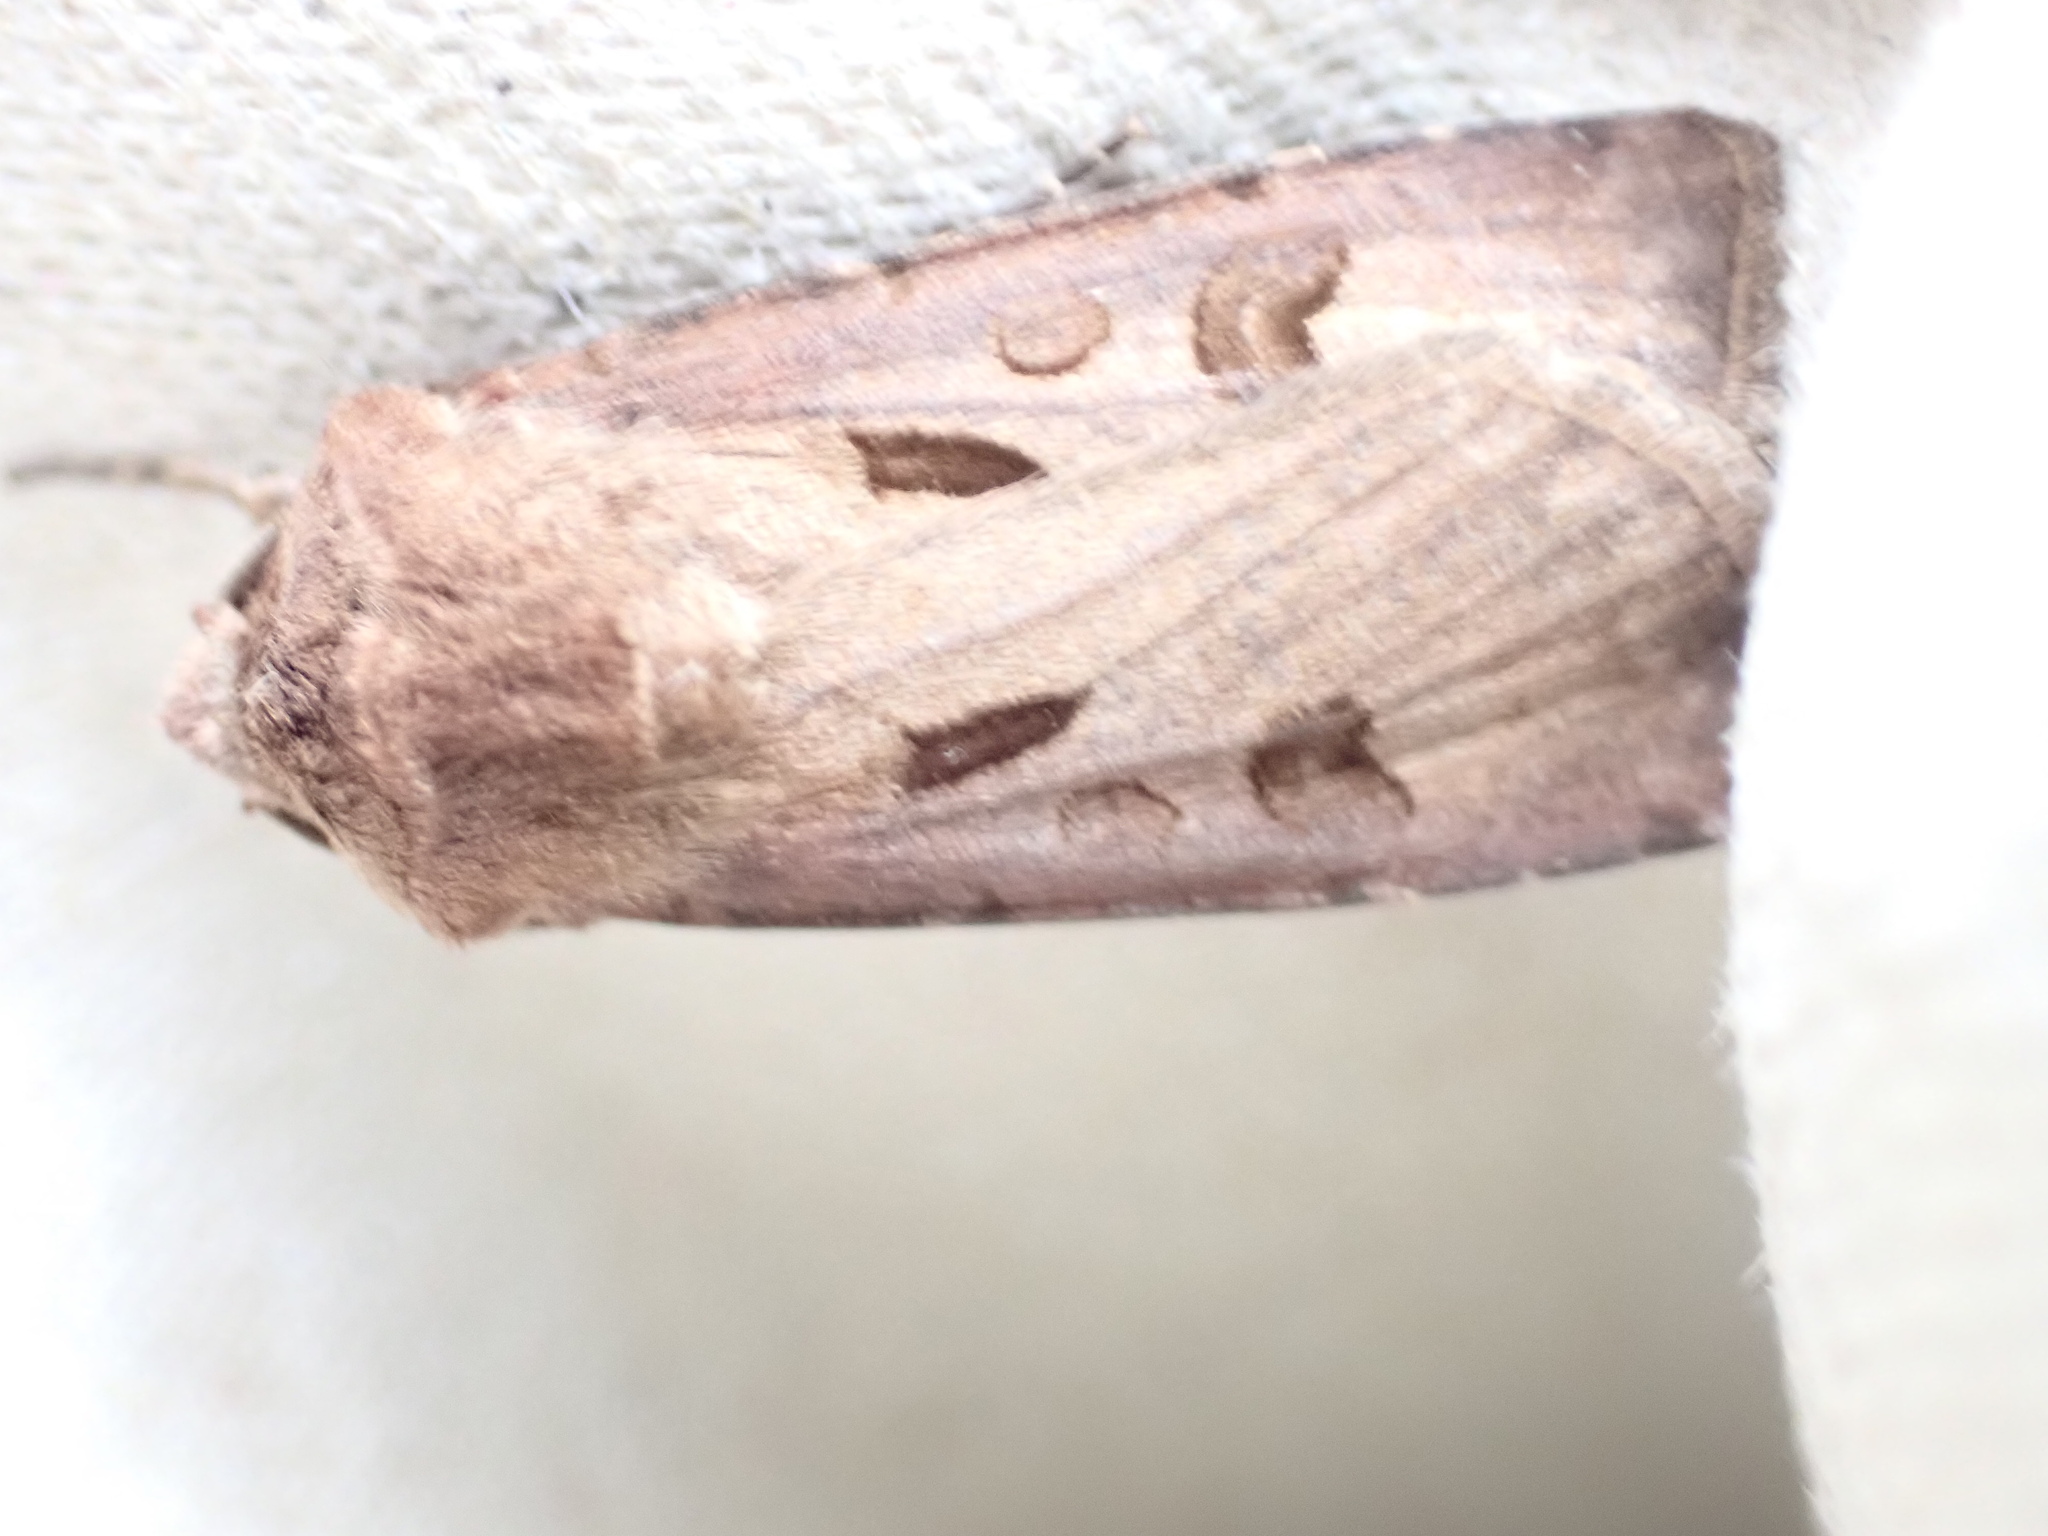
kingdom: Animalia
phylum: Arthropoda
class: Insecta
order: Lepidoptera
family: Noctuidae
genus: Agrotis
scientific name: Agrotis exclamationis
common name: Heart and dart
